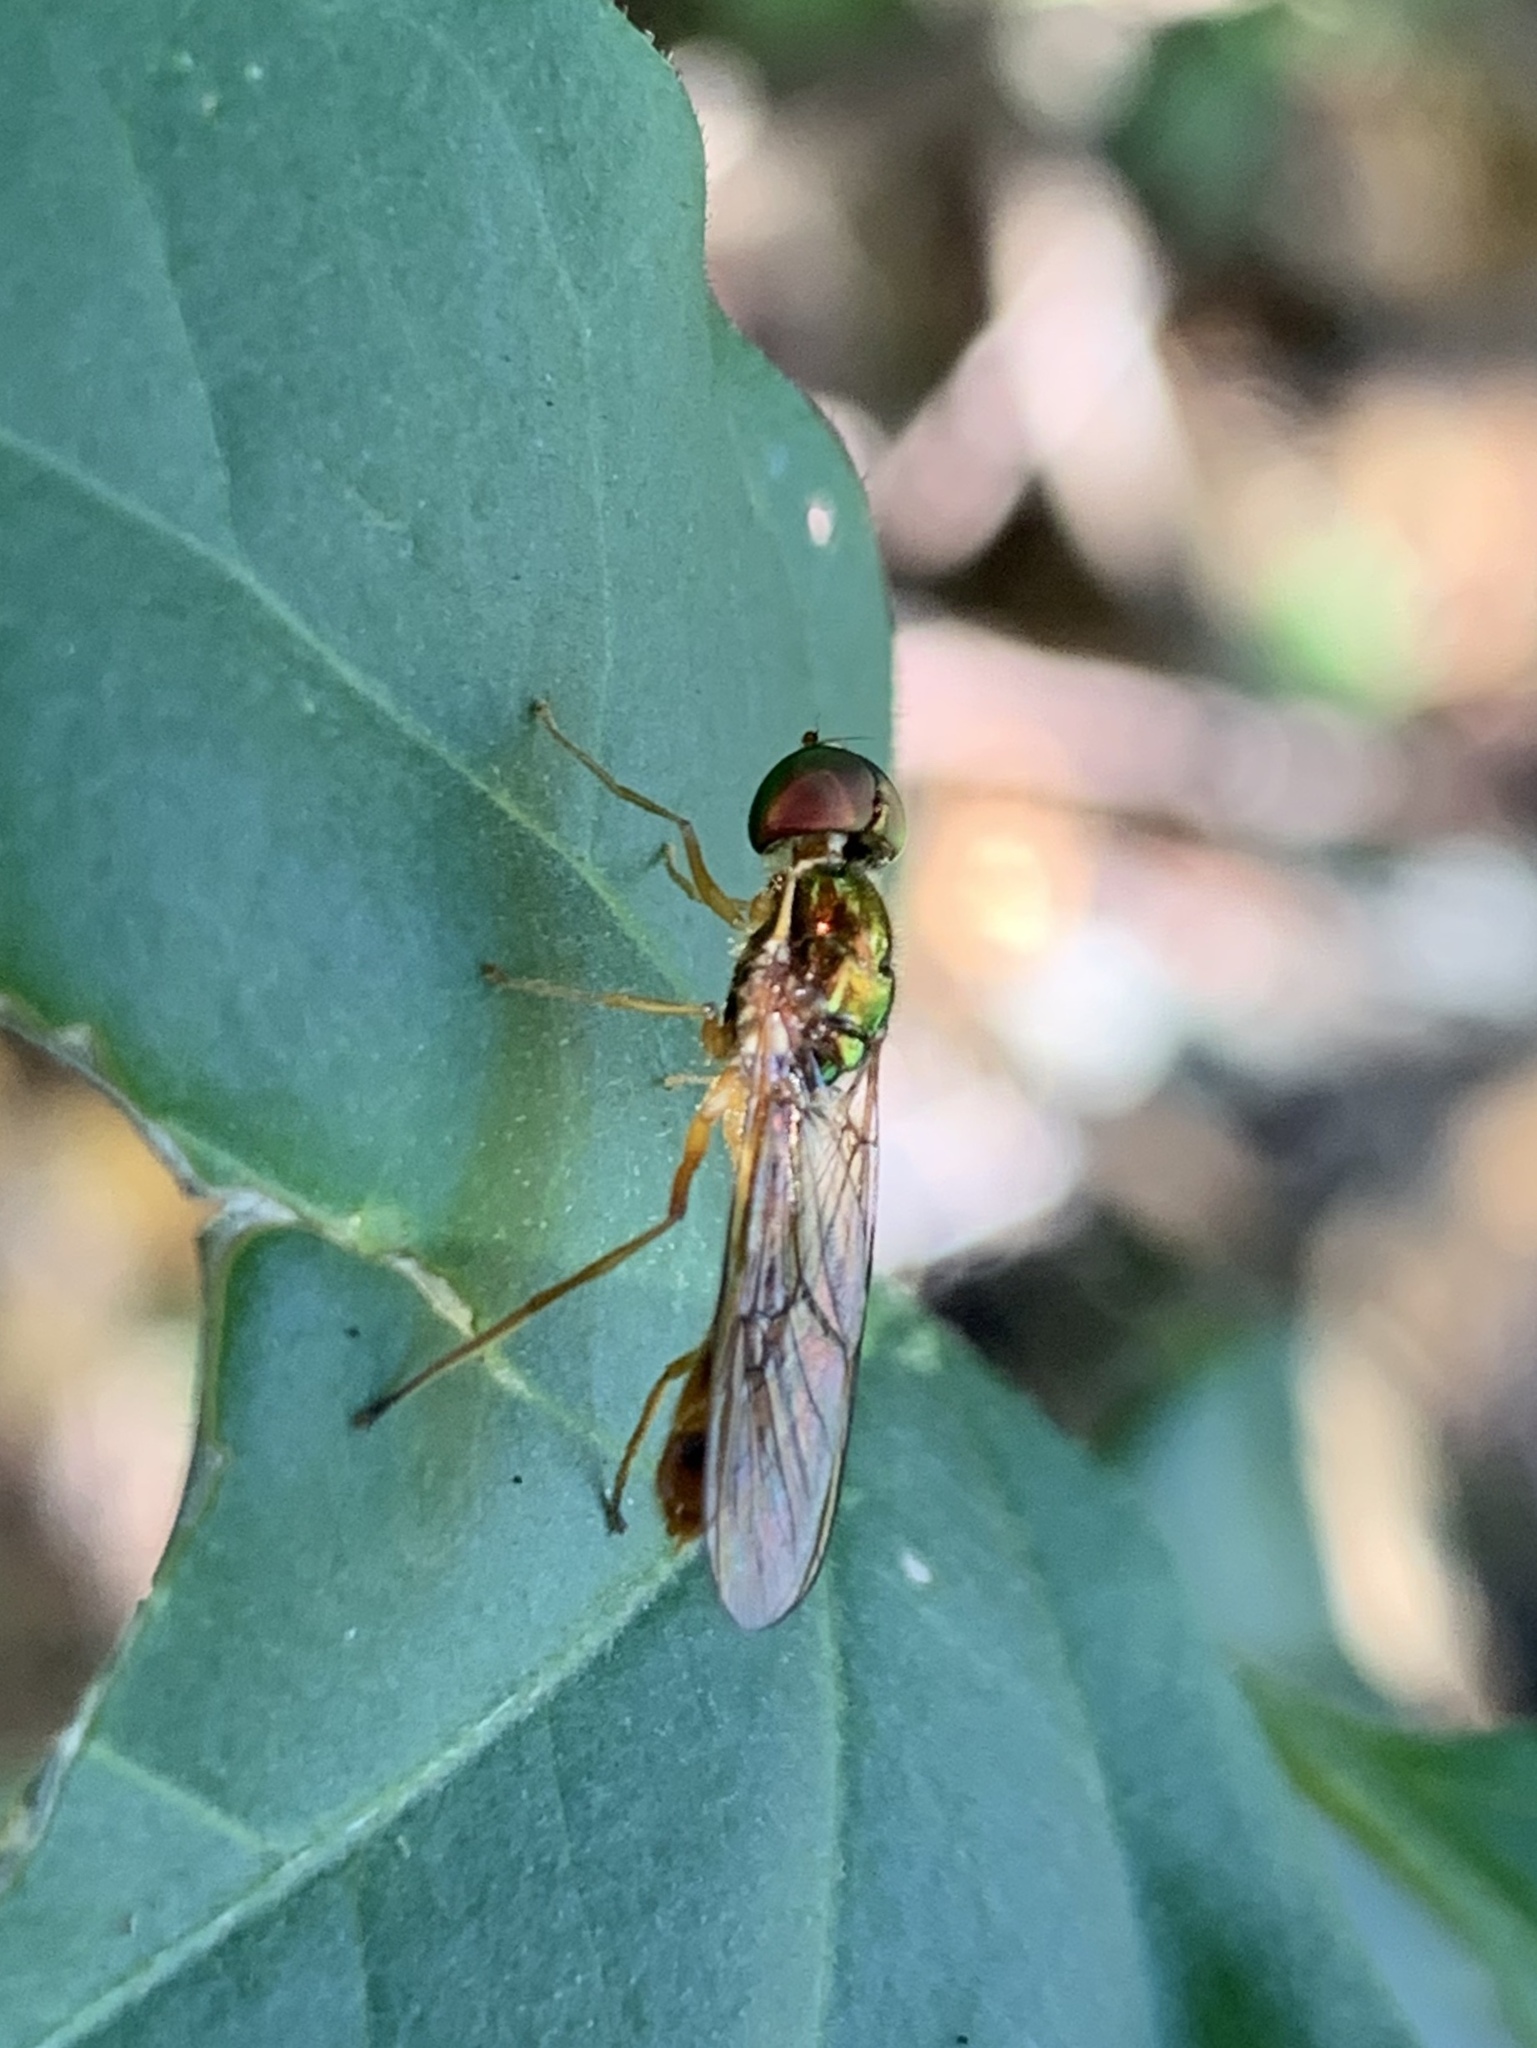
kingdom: Animalia
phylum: Arthropoda
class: Insecta
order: Diptera
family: Stratiomyidae
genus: Sargus
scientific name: Sargus fasciatus
